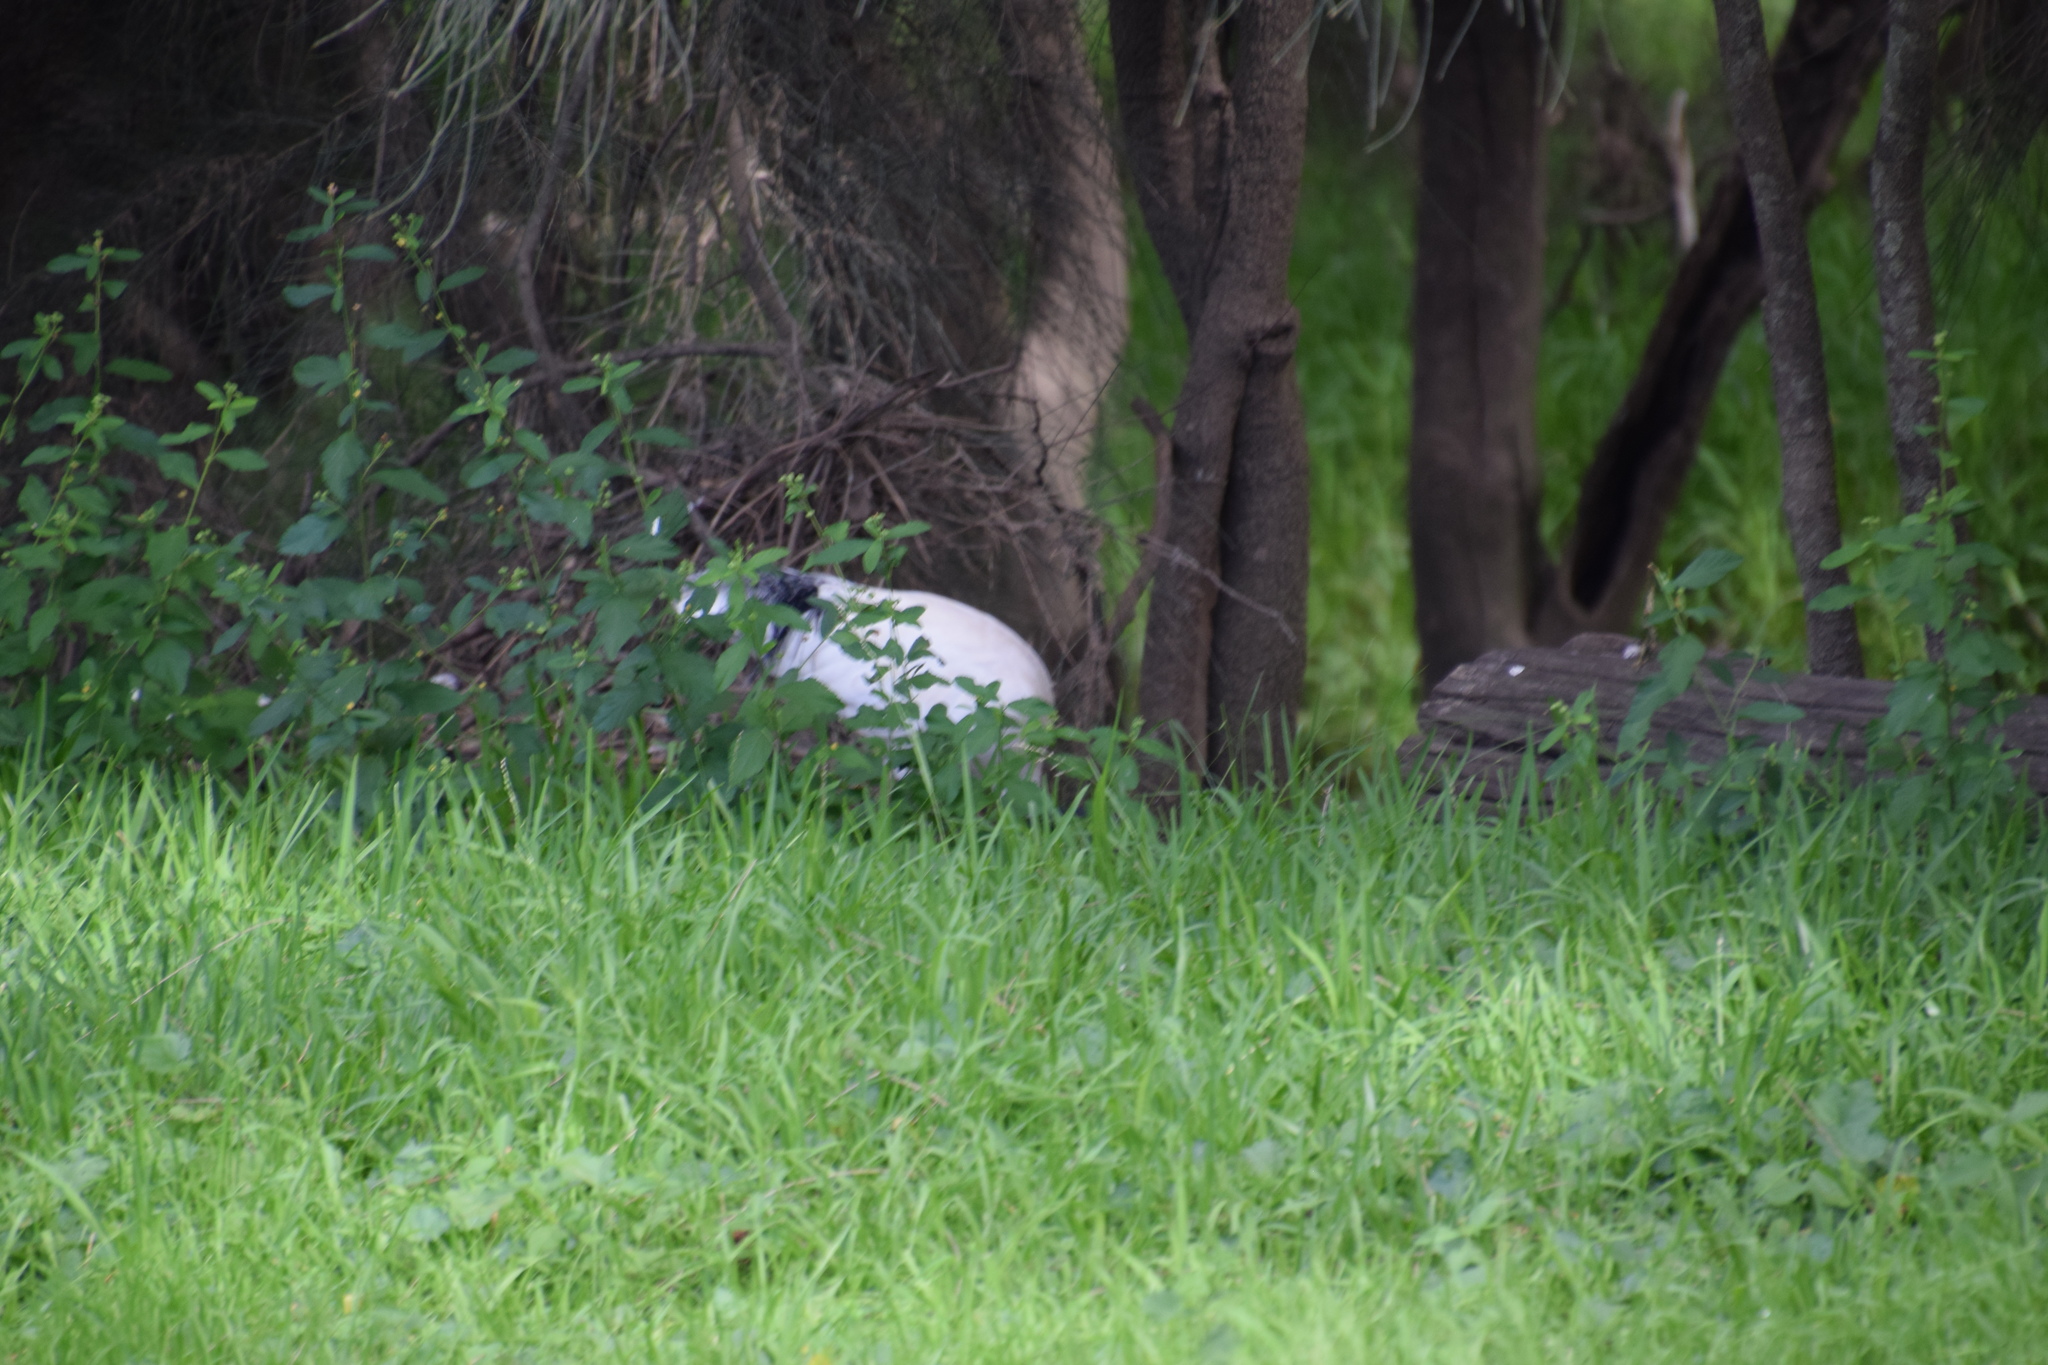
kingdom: Animalia
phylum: Chordata
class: Aves
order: Pelecaniformes
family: Threskiornithidae
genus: Threskiornis
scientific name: Threskiornis molucca
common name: Australian white ibis
